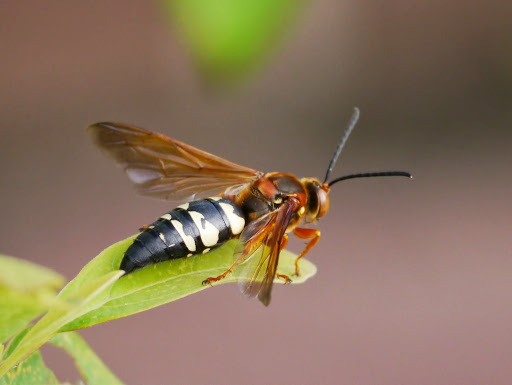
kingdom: Animalia
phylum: Arthropoda
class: Insecta
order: Hymenoptera
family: Crabronidae
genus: Sphecius
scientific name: Sphecius speciosus
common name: Cicada killer
